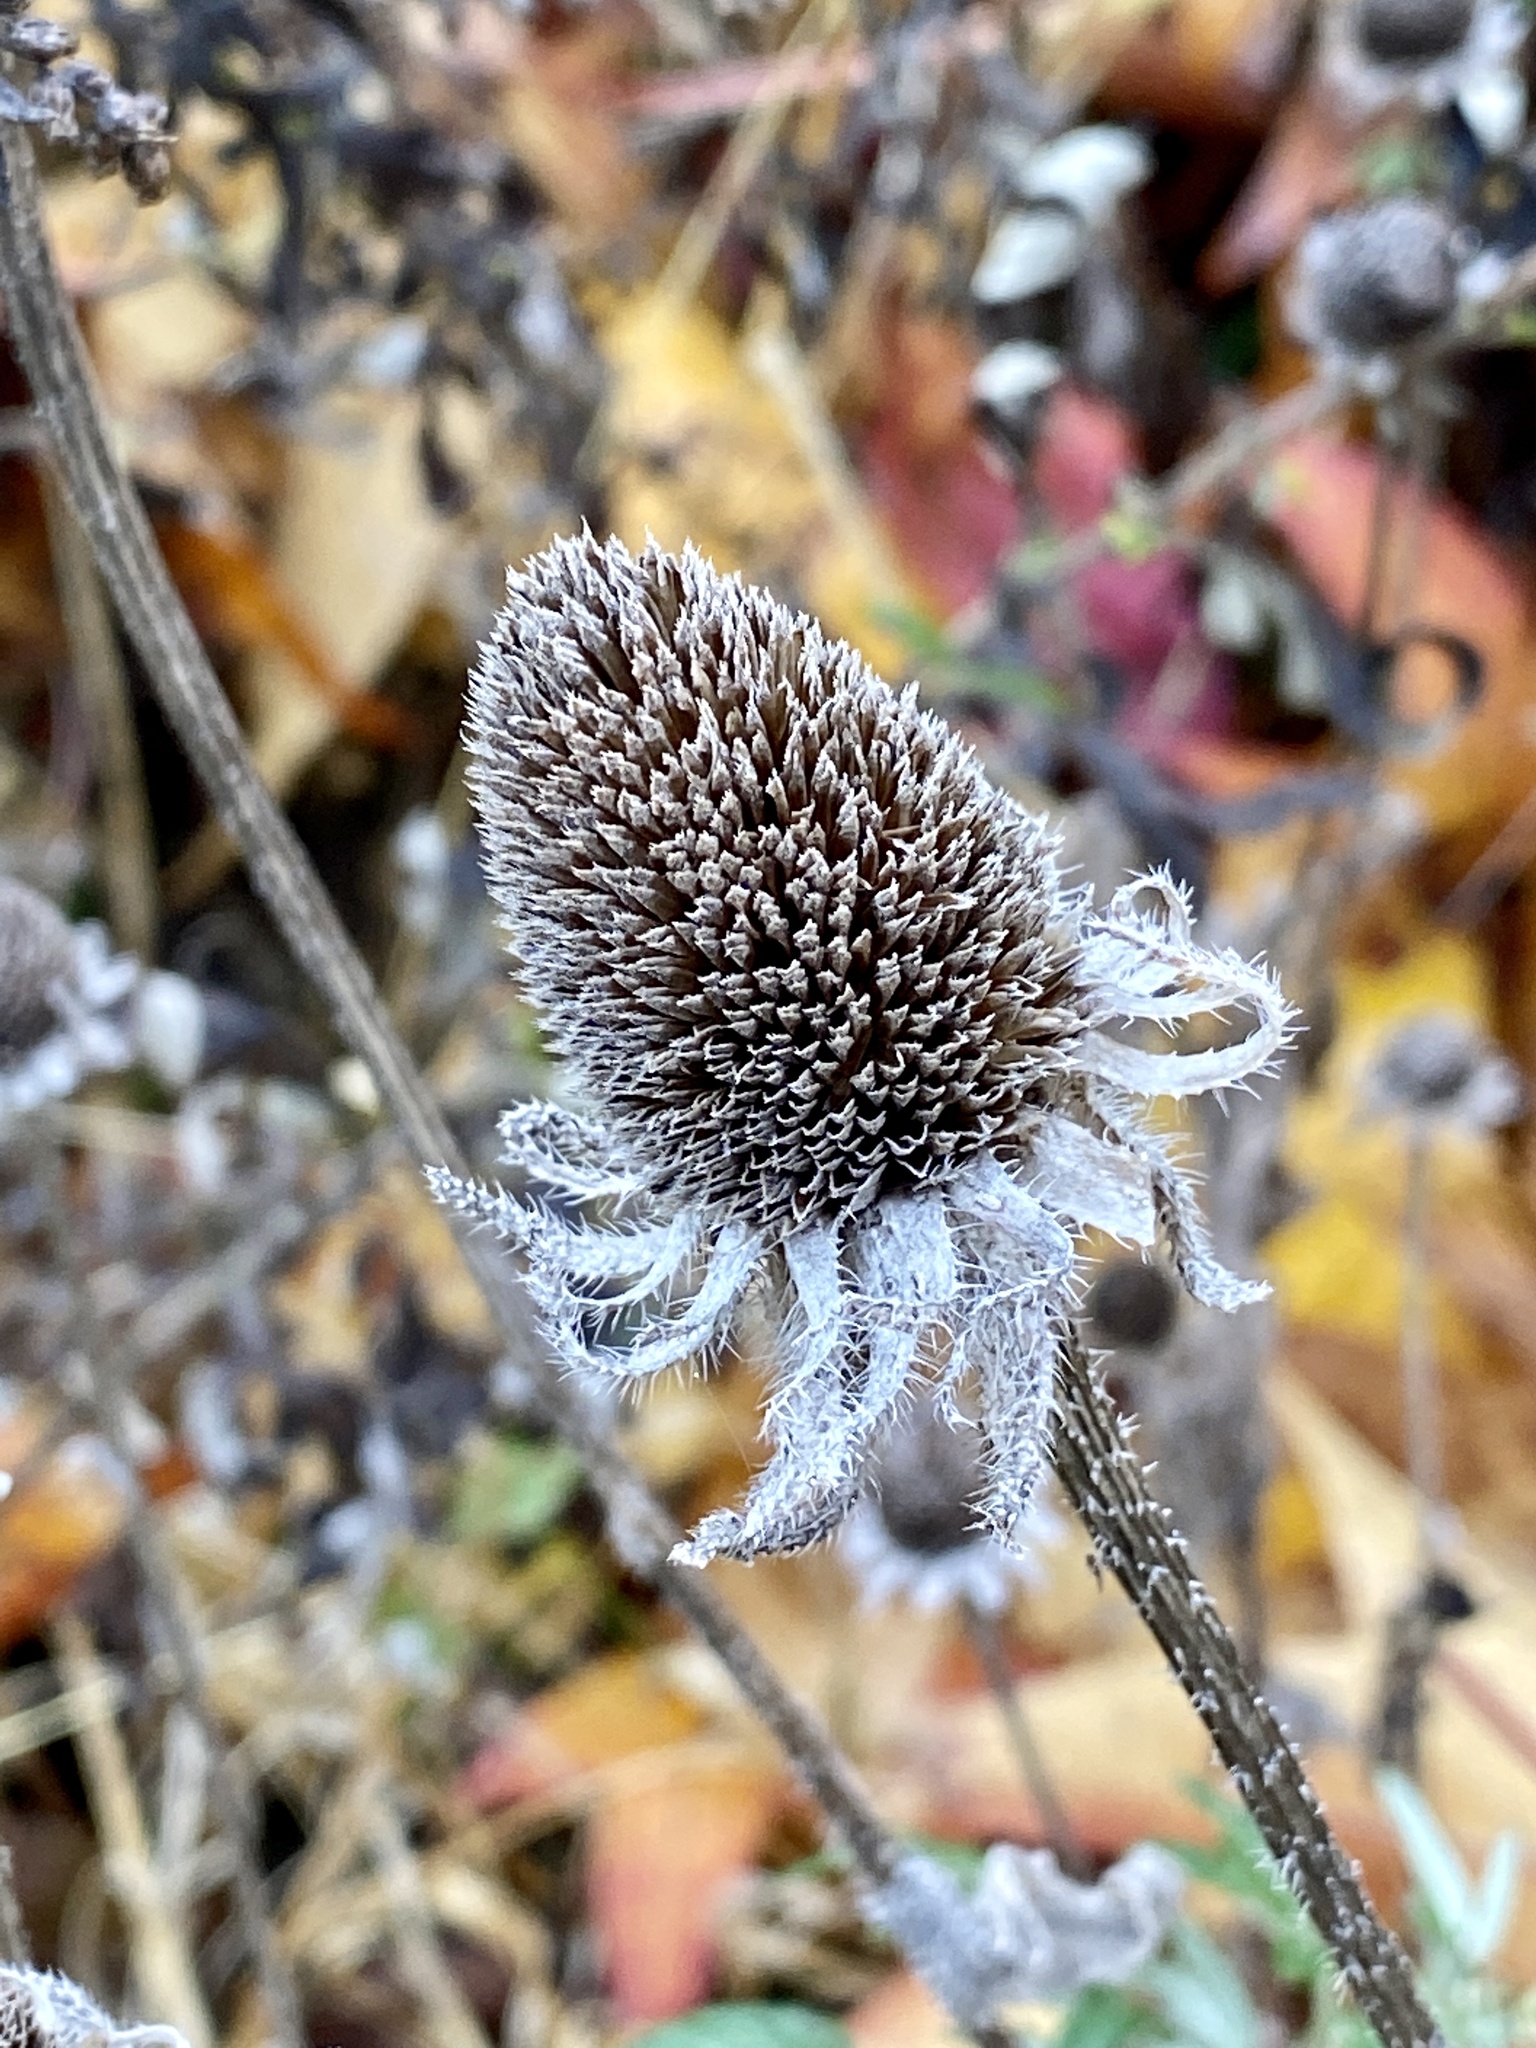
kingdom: Plantae
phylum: Tracheophyta
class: Magnoliopsida
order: Asterales
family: Asteraceae
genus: Rudbeckia
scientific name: Rudbeckia hirta
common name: Black-eyed-susan
